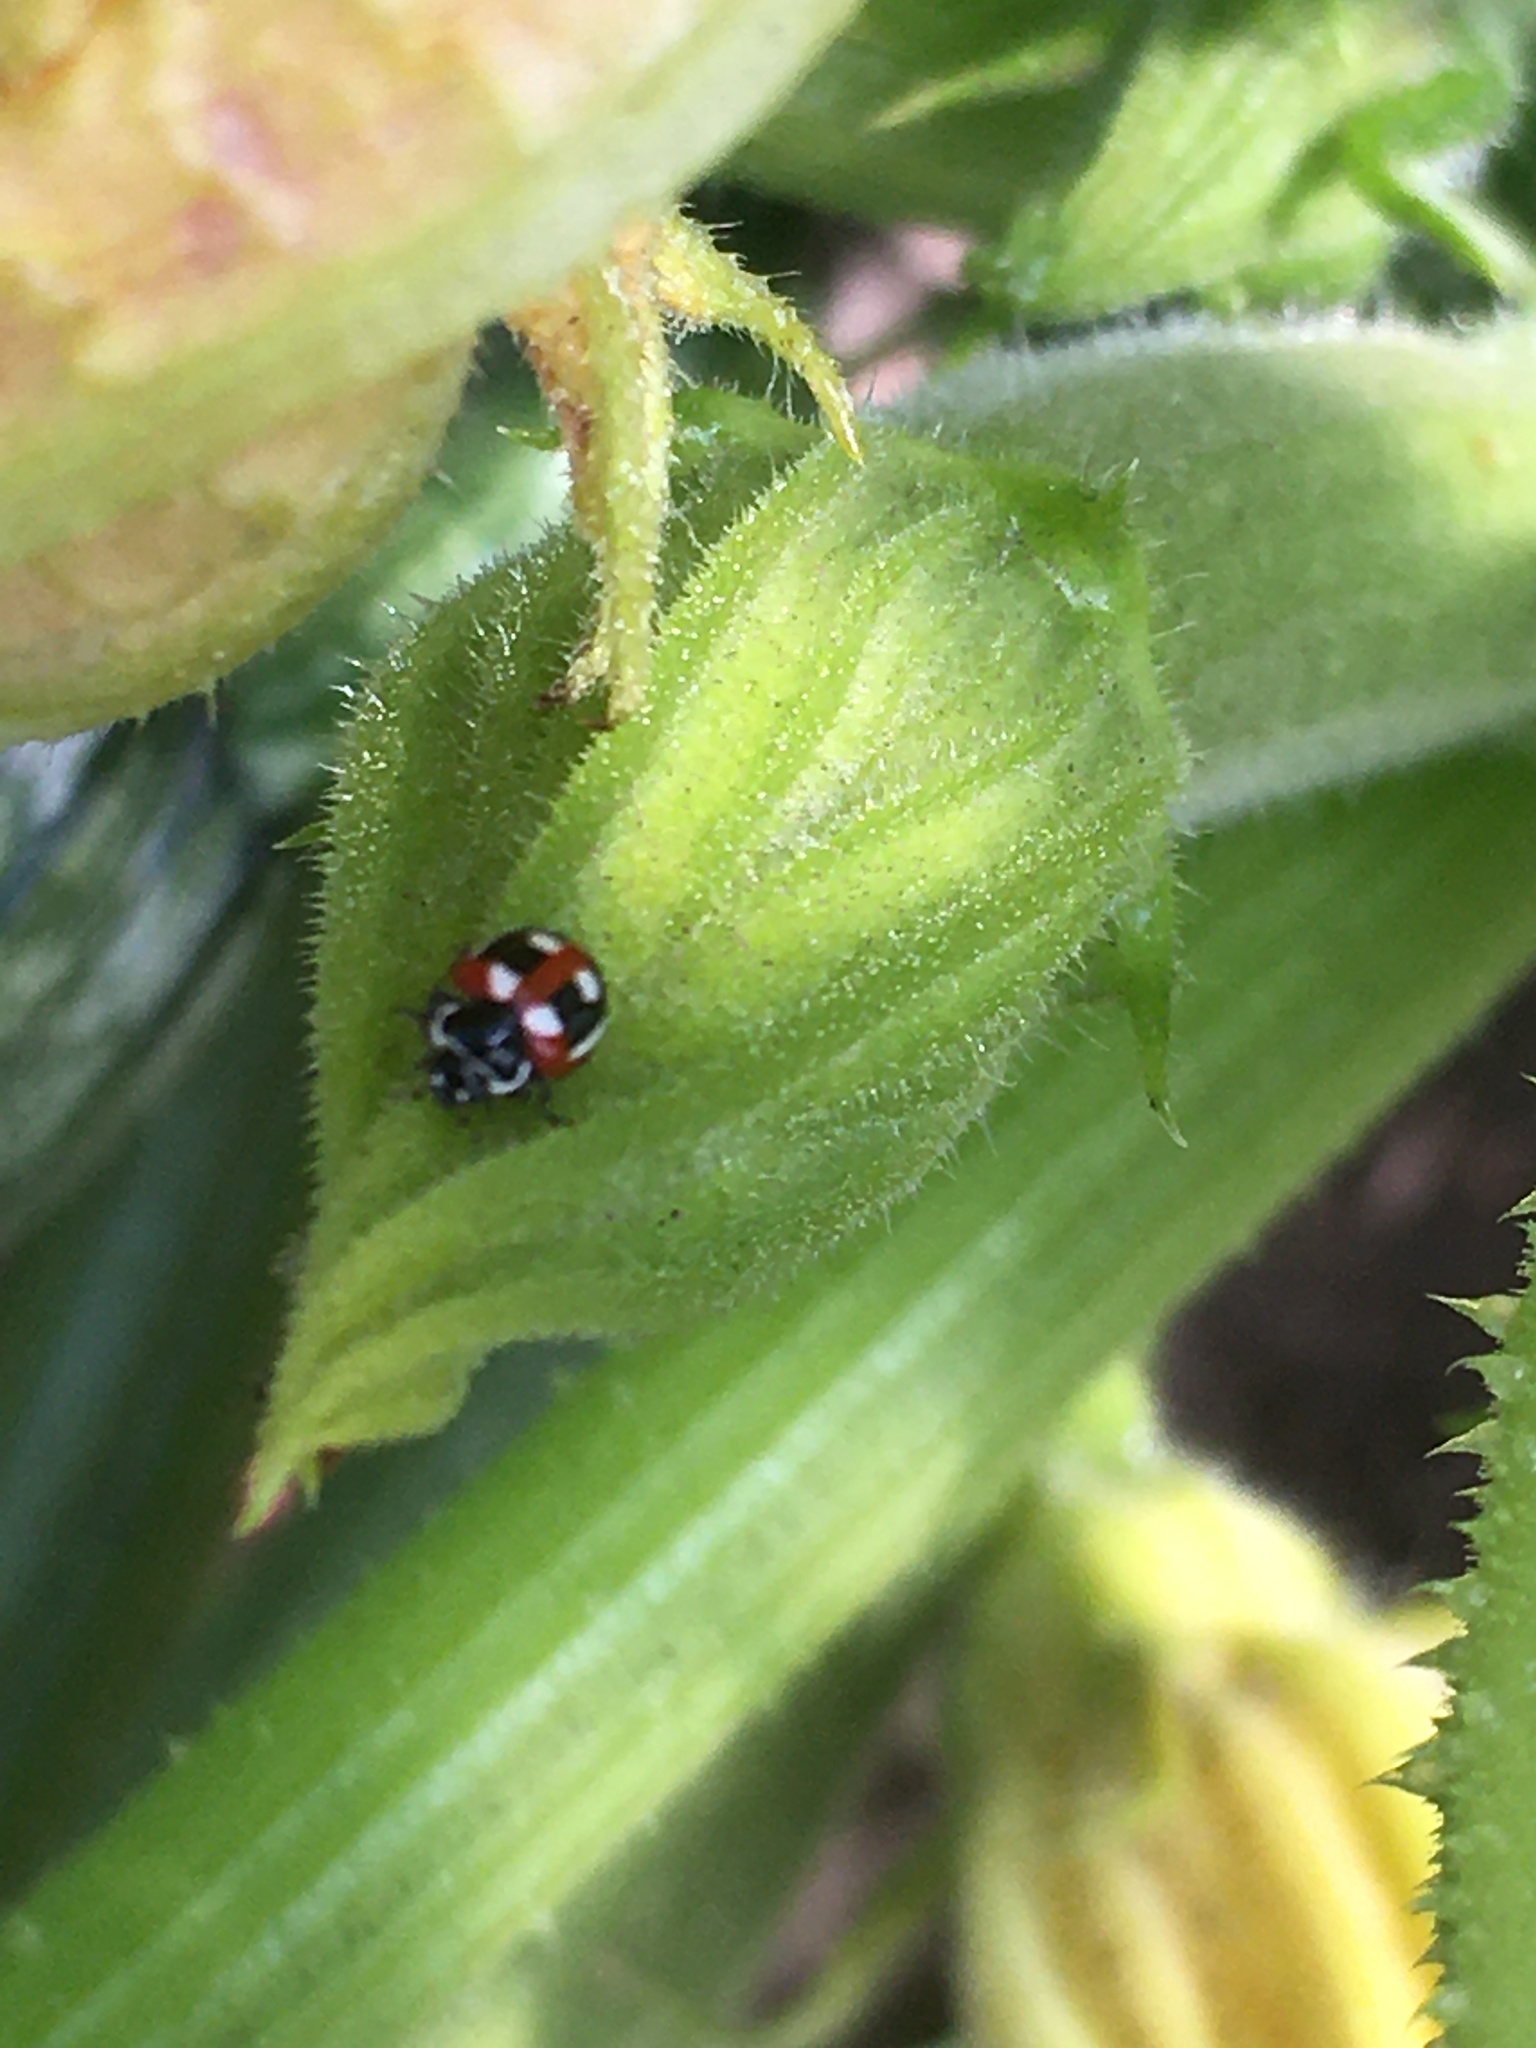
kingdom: Animalia
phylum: Arthropoda
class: Insecta
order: Coleoptera
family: Coccinellidae
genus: Cycloneda
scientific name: Cycloneda germainii
